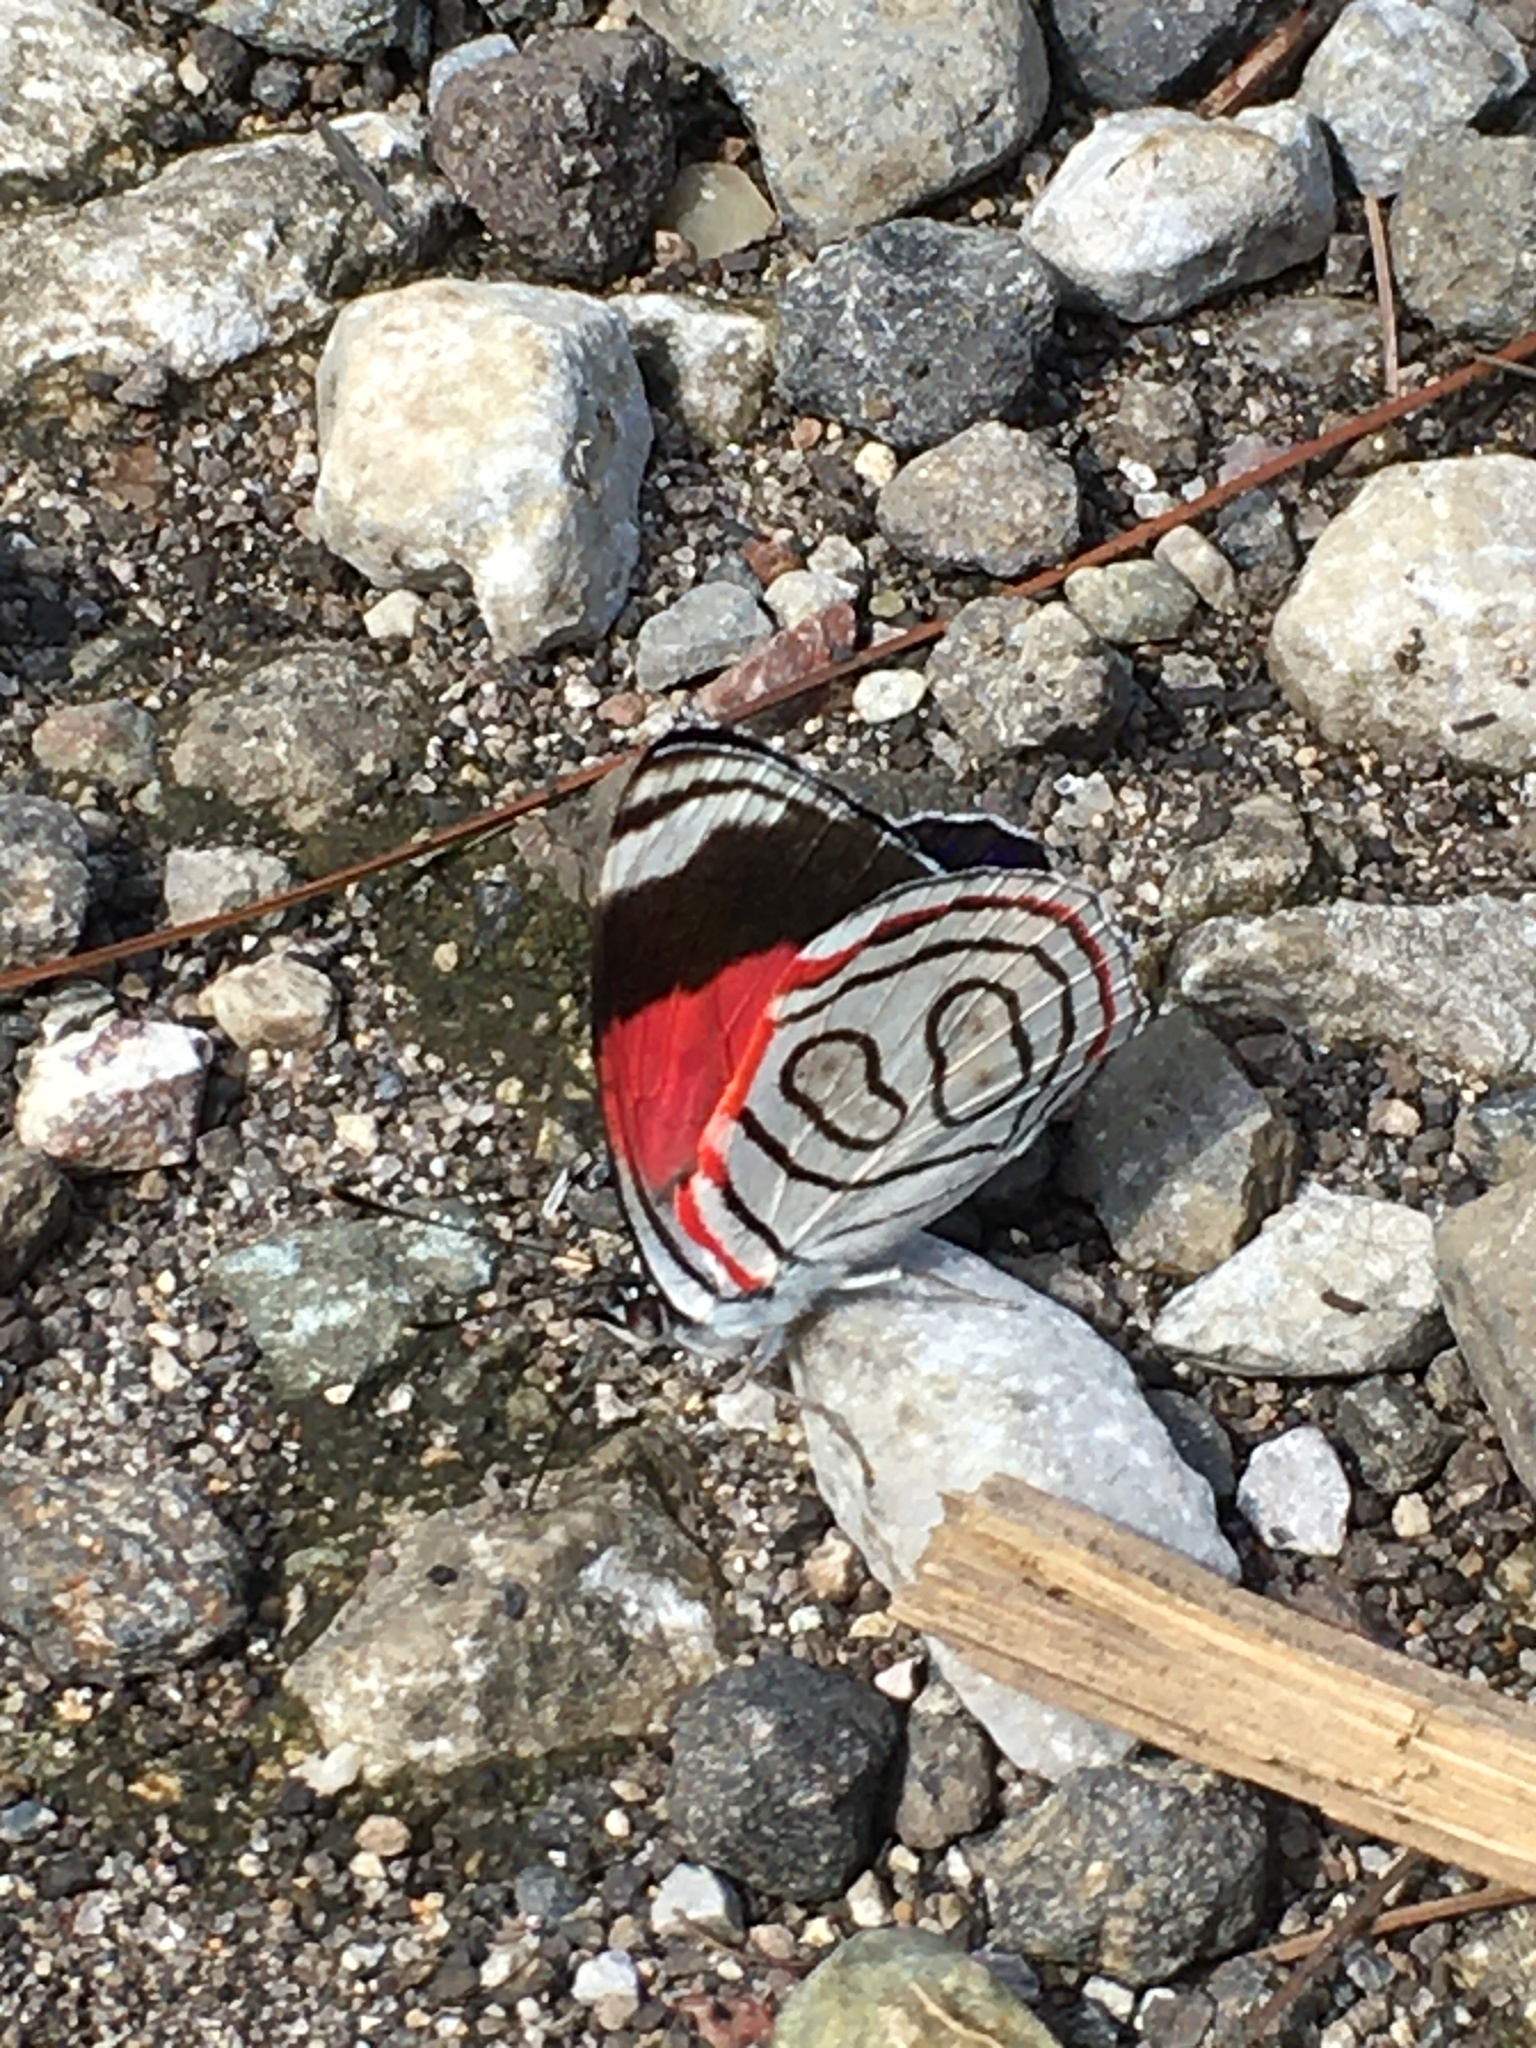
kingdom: Animalia
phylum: Arthropoda
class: Insecta
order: Lepidoptera
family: Nymphalidae
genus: Diaethria
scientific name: Diaethria astala
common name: Navy eighty-eight
